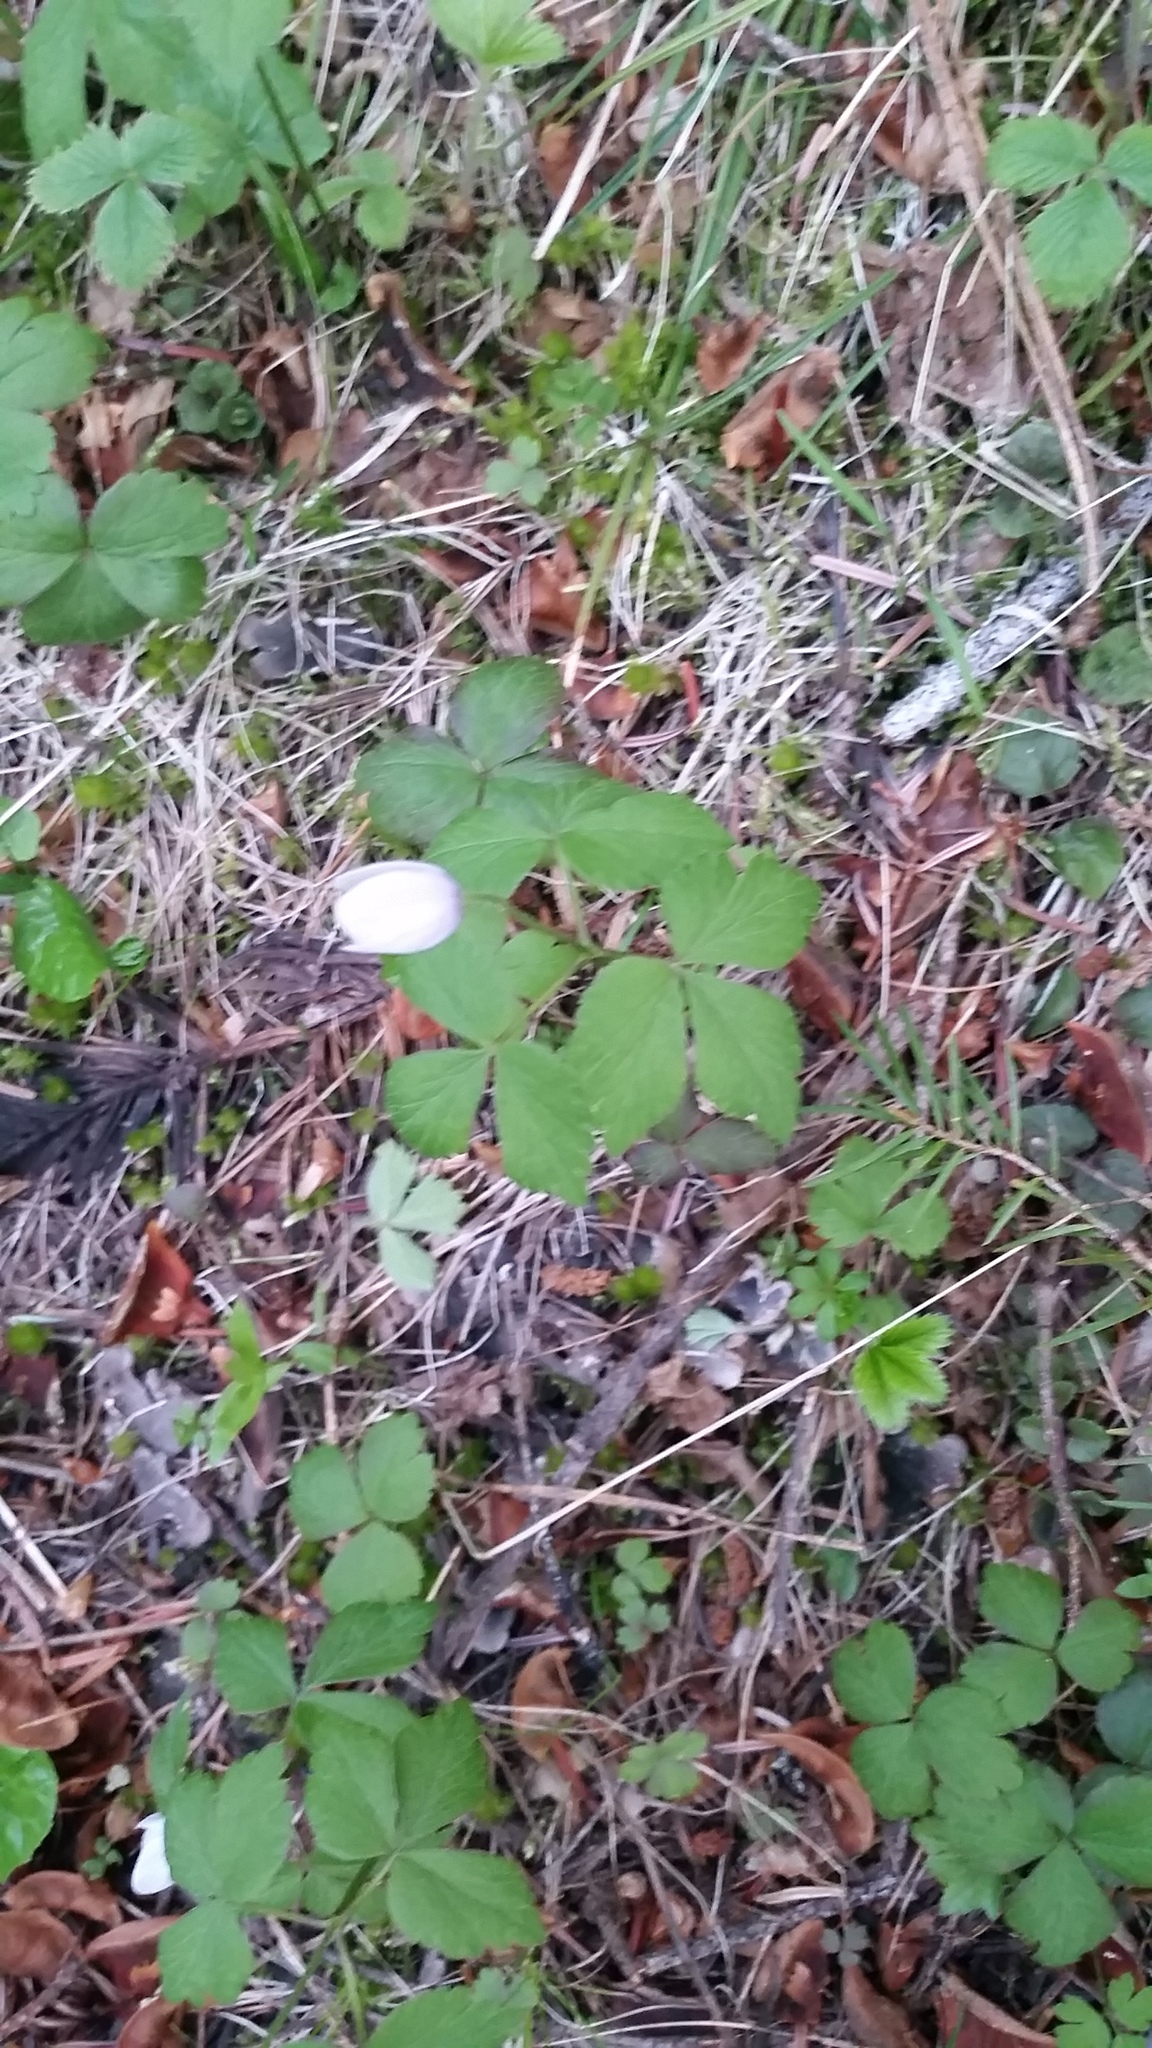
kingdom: Plantae
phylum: Tracheophyta
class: Magnoliopsida
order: Ranunculales
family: Ranunculaceae
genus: Anemone
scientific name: Anemone piperi
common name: Piper's anemone
